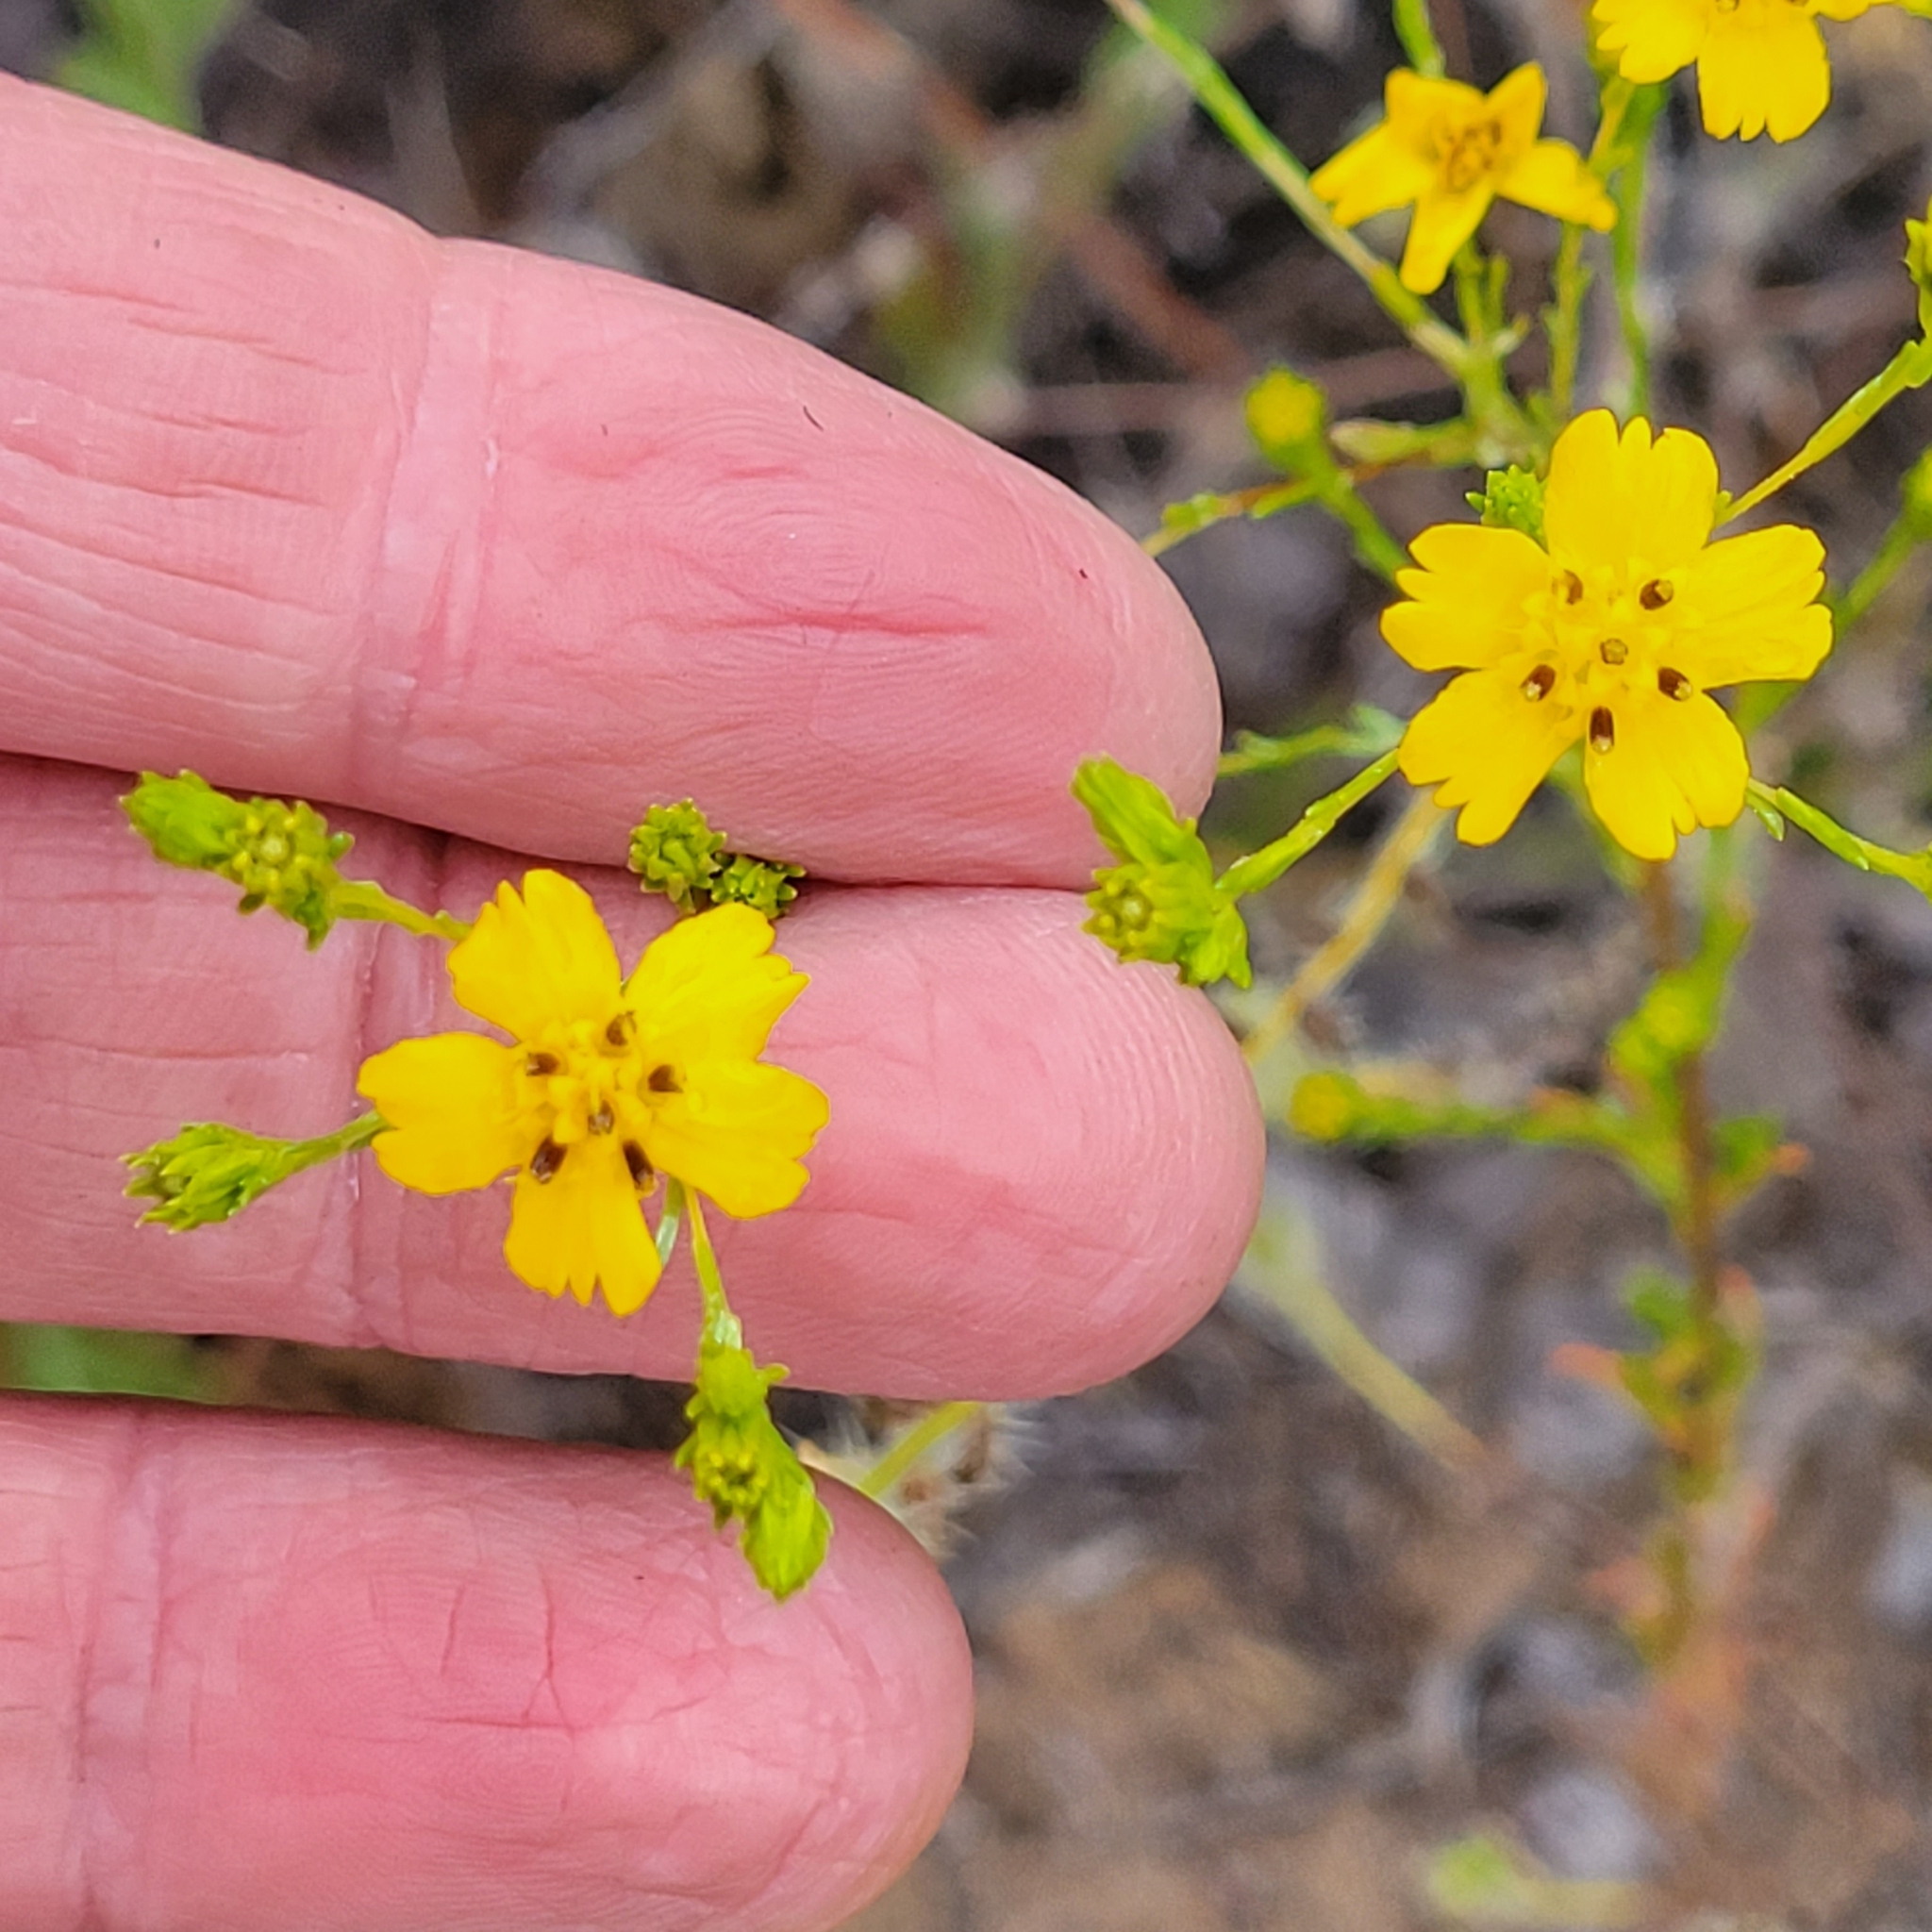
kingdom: Plantae
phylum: Tracheophyta
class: Magnoliopsida
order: Asterales
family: Asteraceae
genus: Deinandra
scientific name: Deinandra fasciculata
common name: Clustered tarweed
